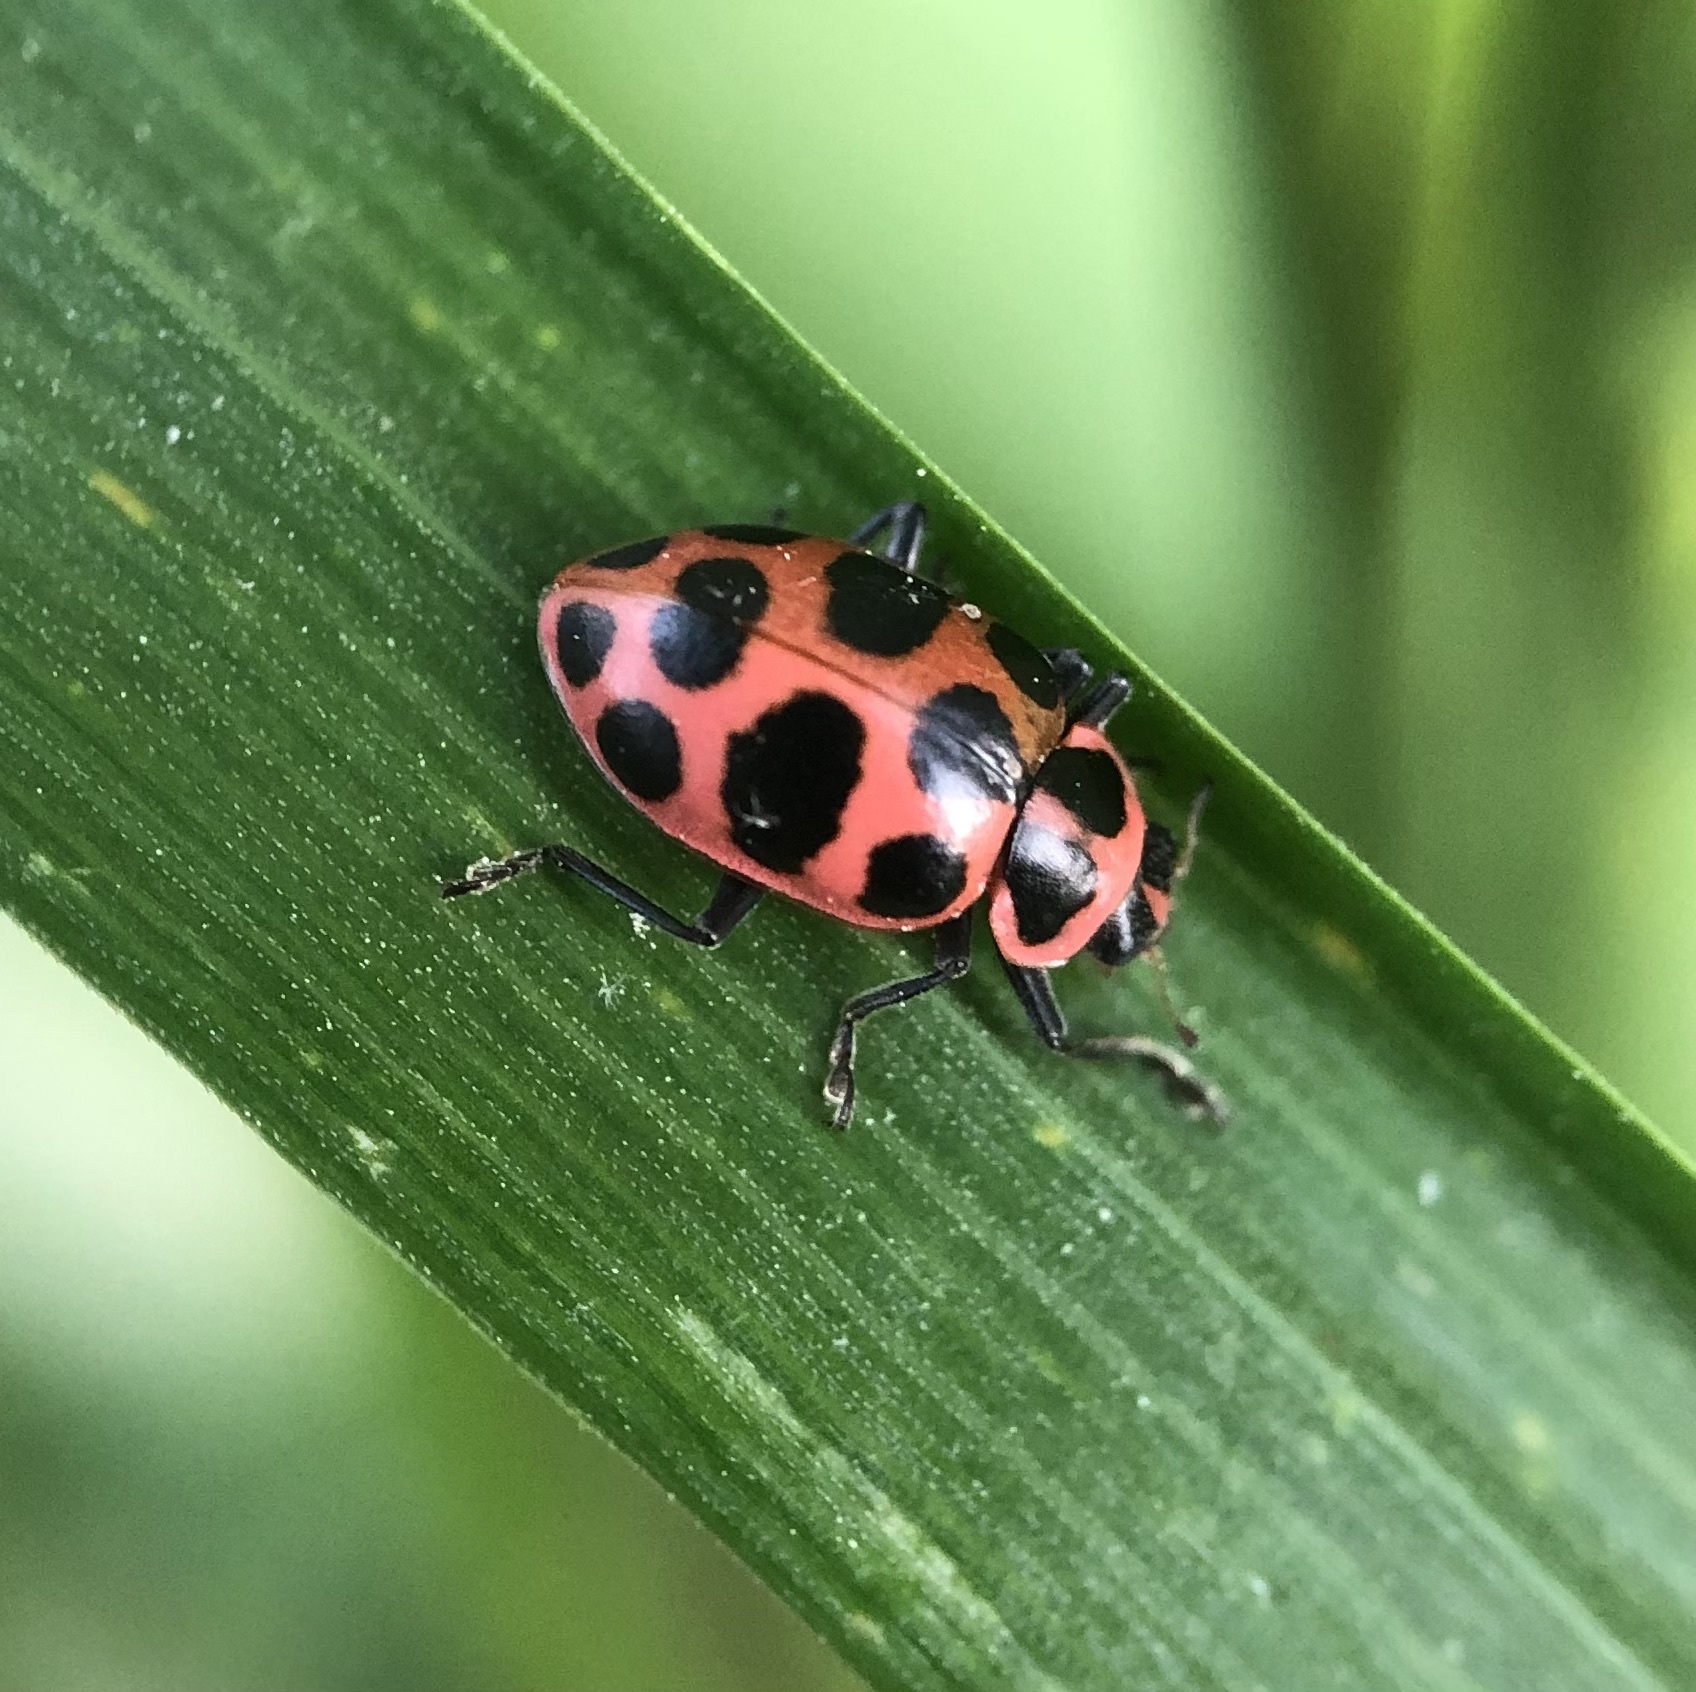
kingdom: Animalia
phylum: Arthropoda
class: Insecta
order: Coleoptera
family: Coccinellidae
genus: Coleomegilla
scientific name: Coleomegilla maculata
